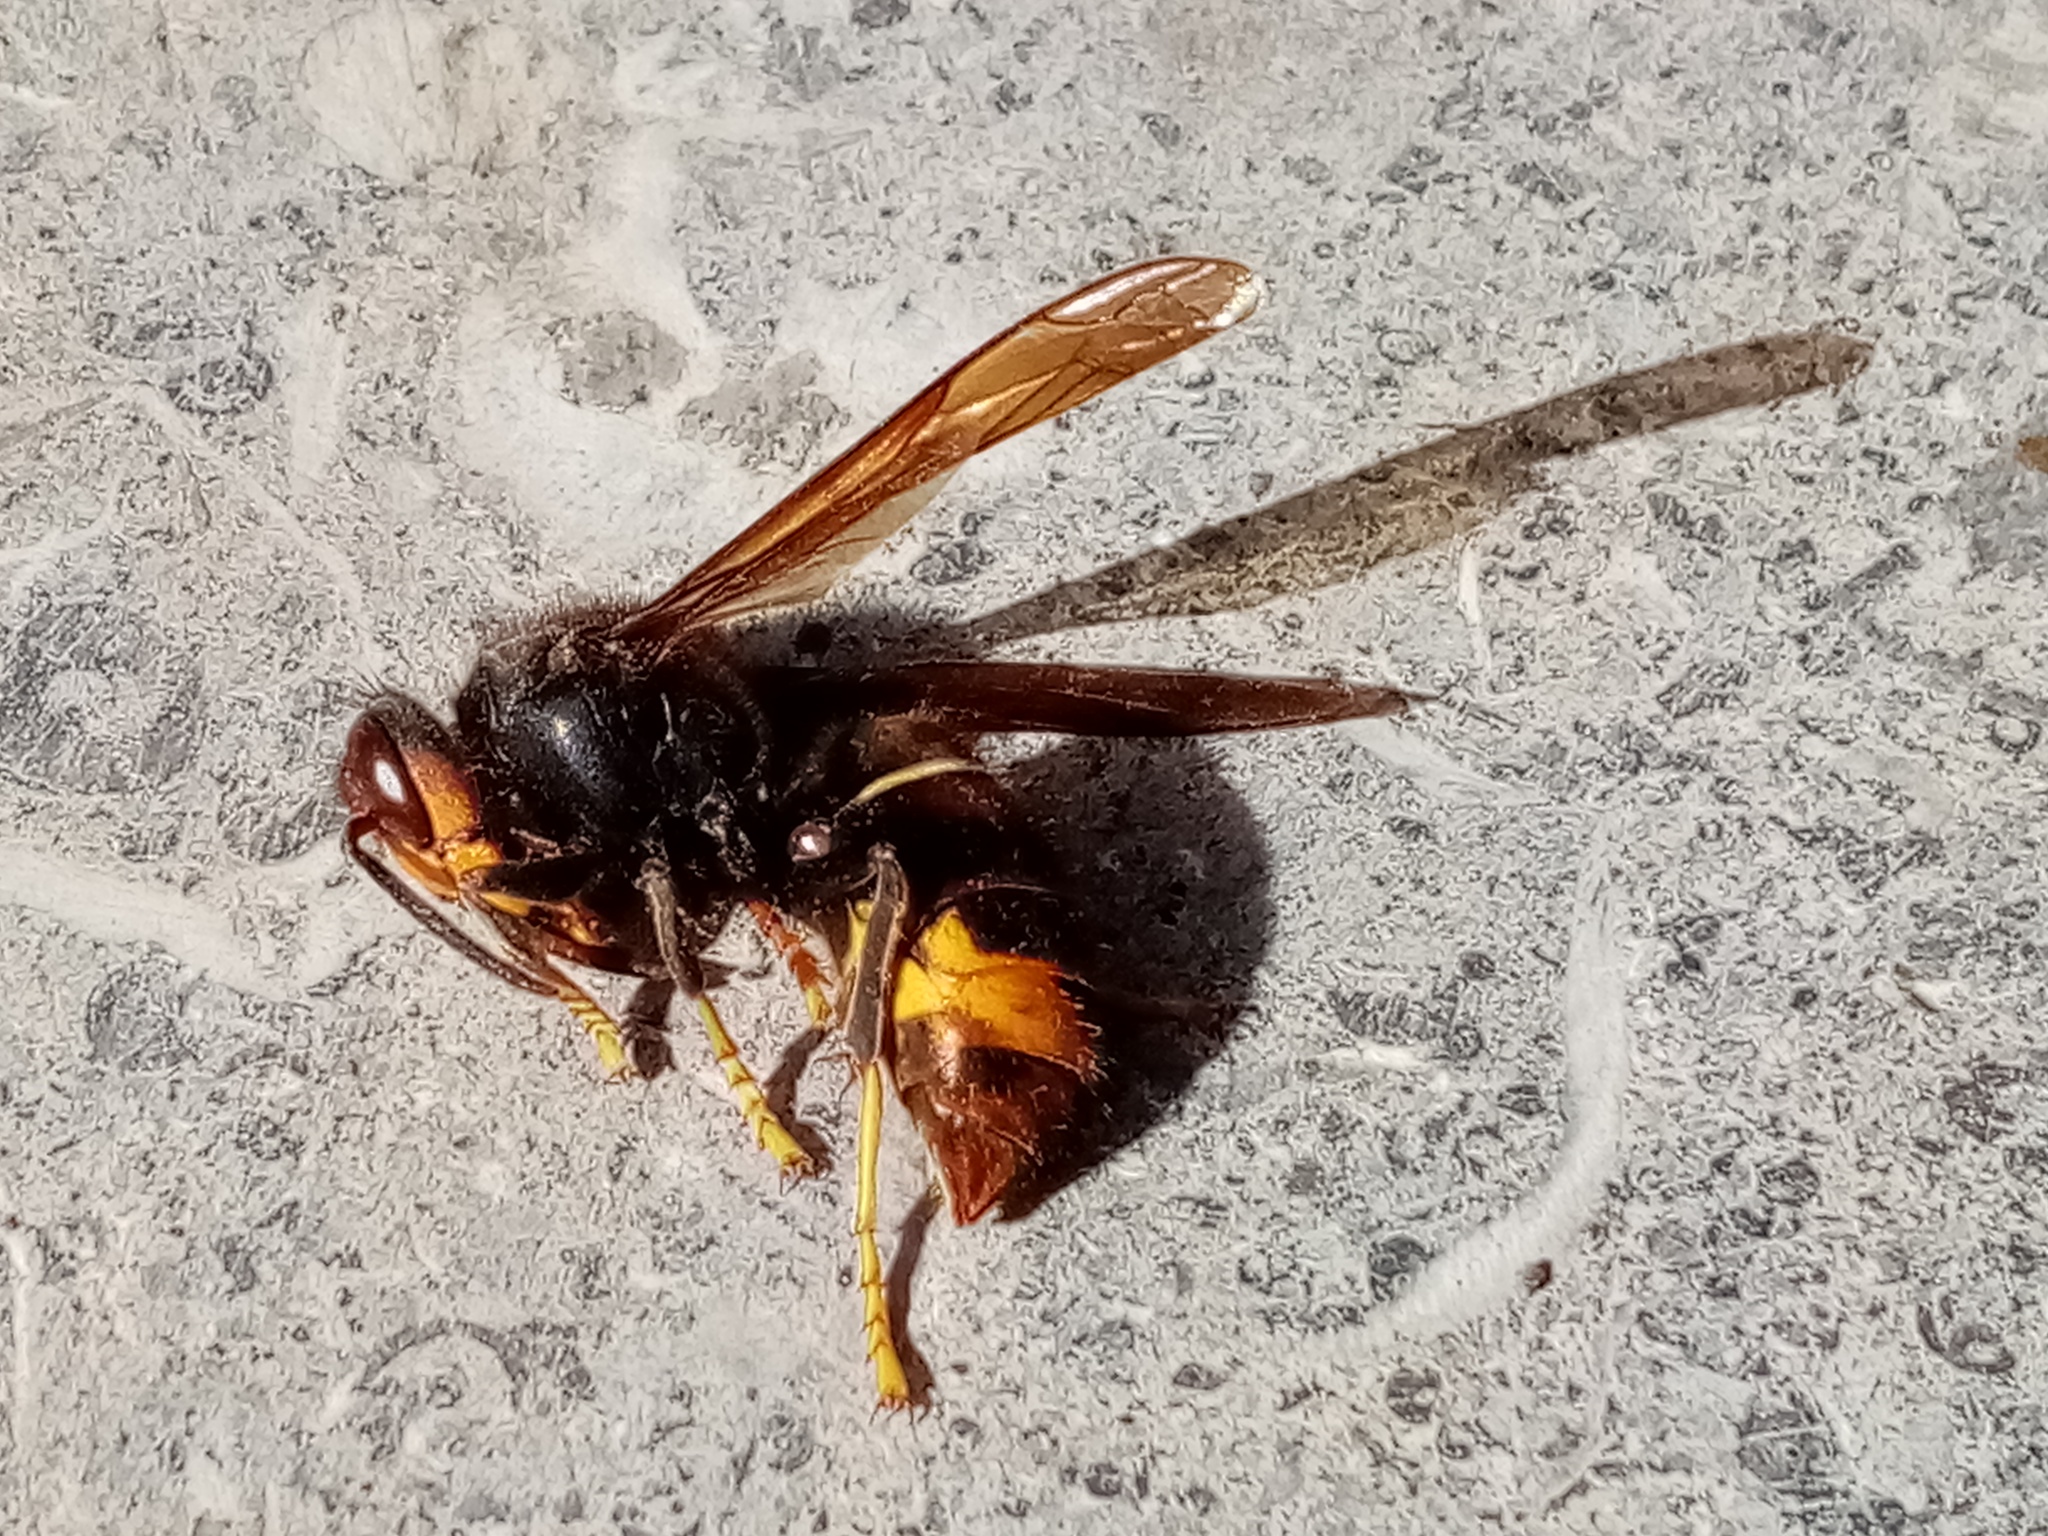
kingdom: Animalia
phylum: Arthropoda
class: Insecta
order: Hymenoptera
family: Vespidae
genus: Vespa
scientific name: Vespa velutina
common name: Asian hornet
